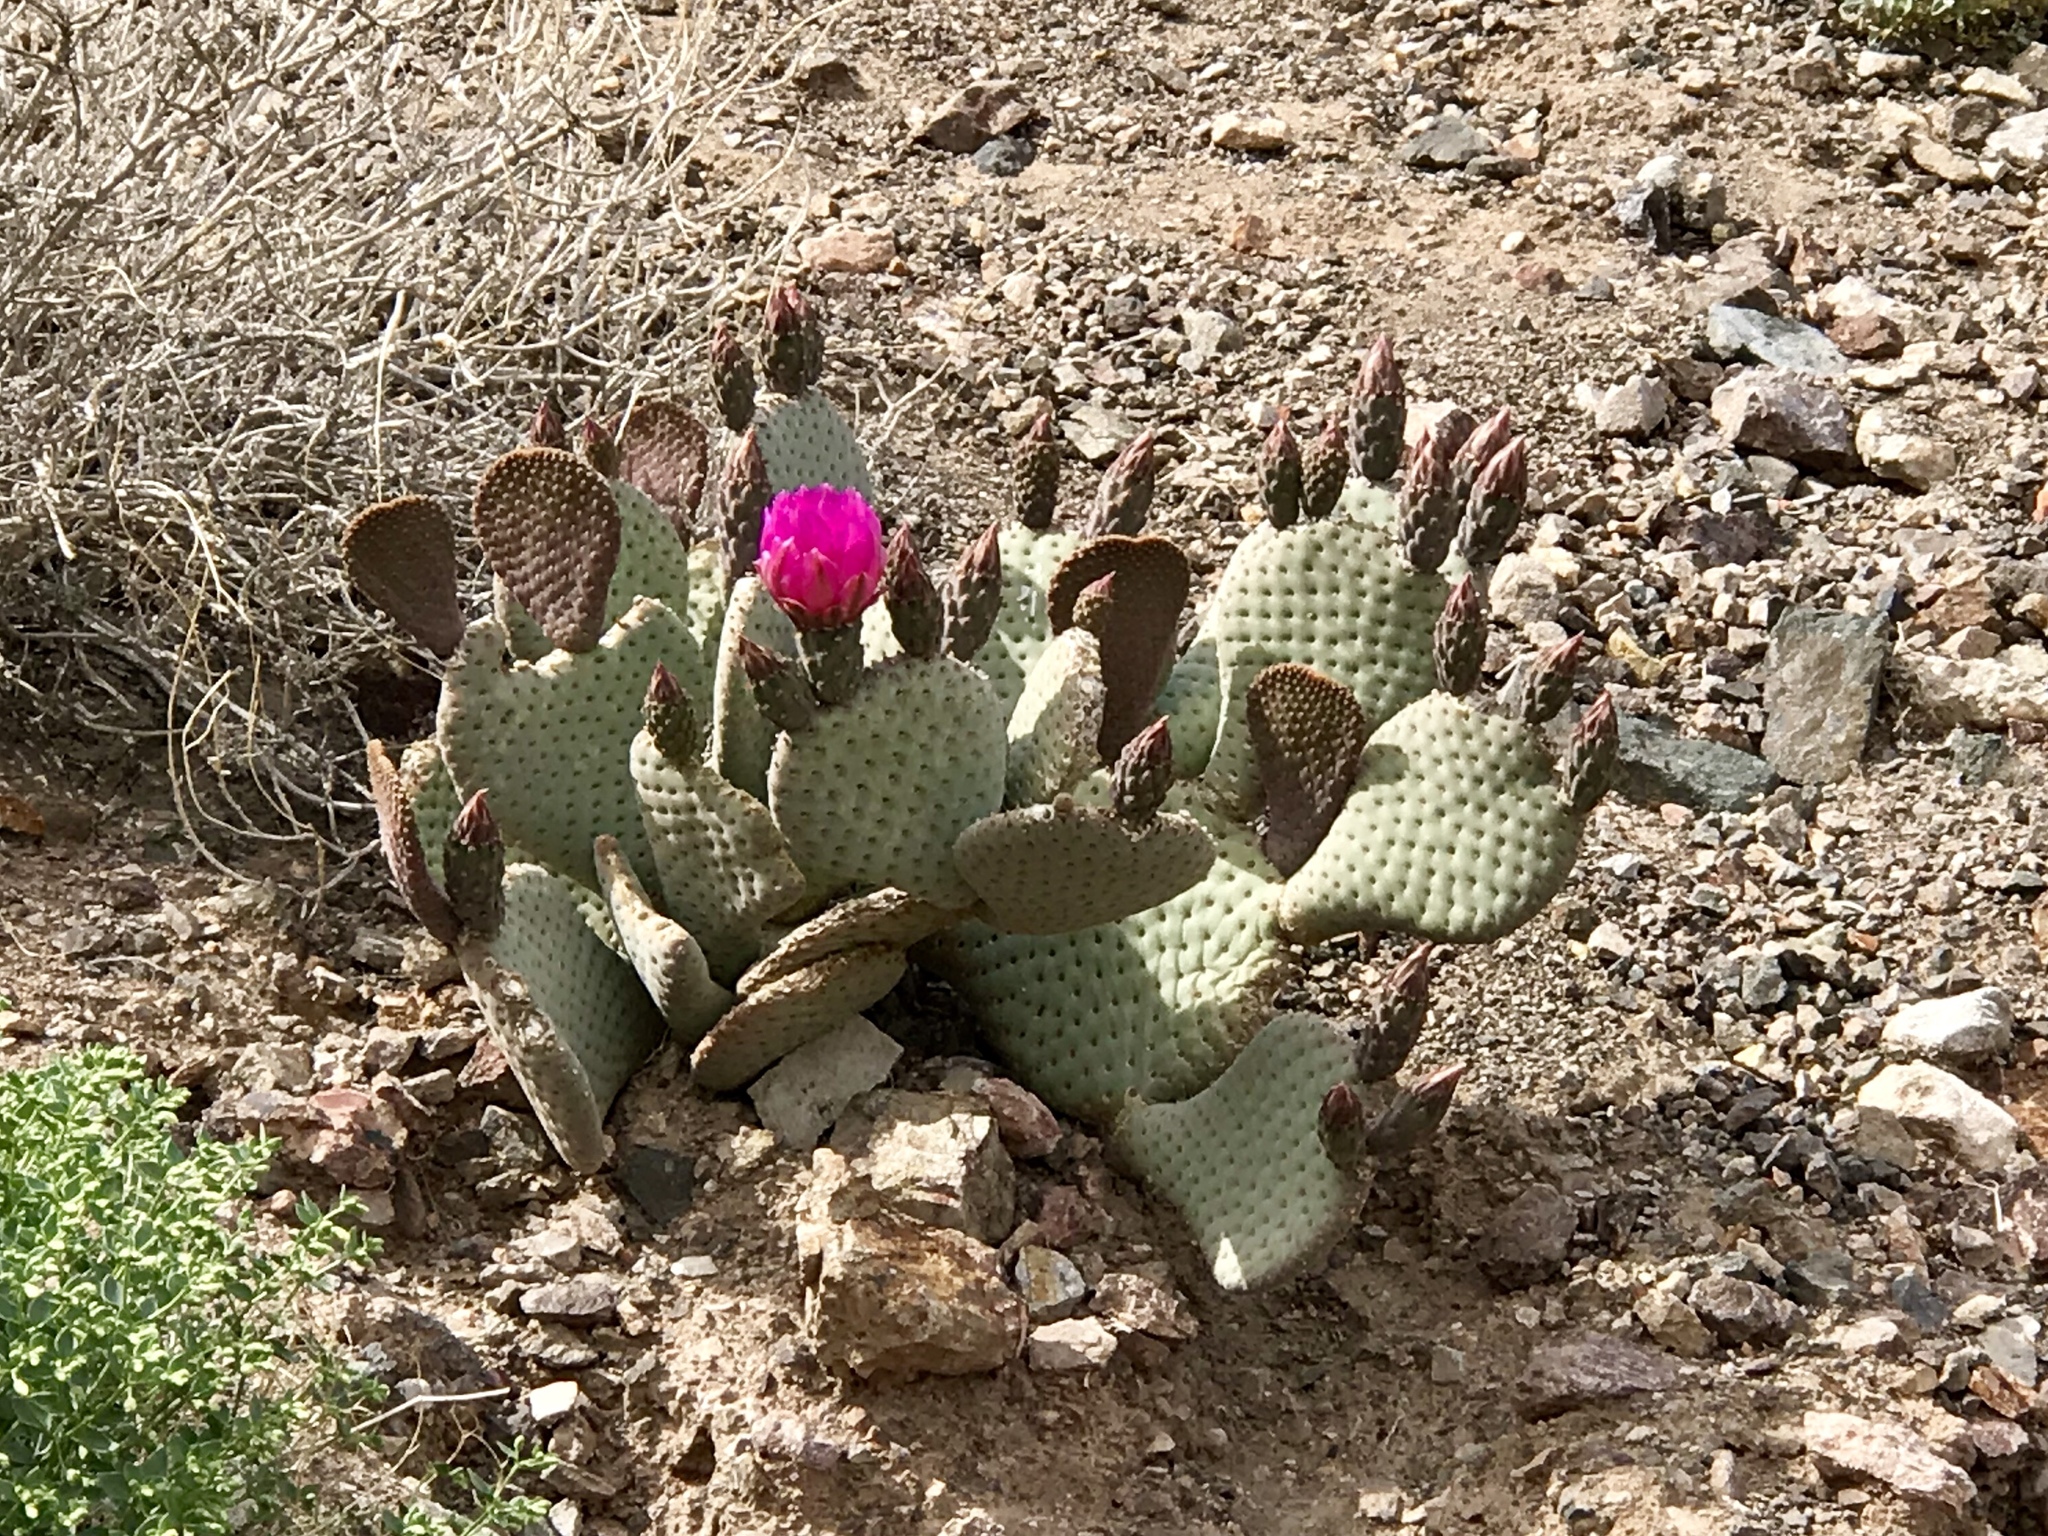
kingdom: Plantae
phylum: Tracheophyta
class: Magnoliopsida
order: Caryophyllales
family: Cactaceae
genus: Opuntia
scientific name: Opuntia basilaris
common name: Beavertail prickly-pear
